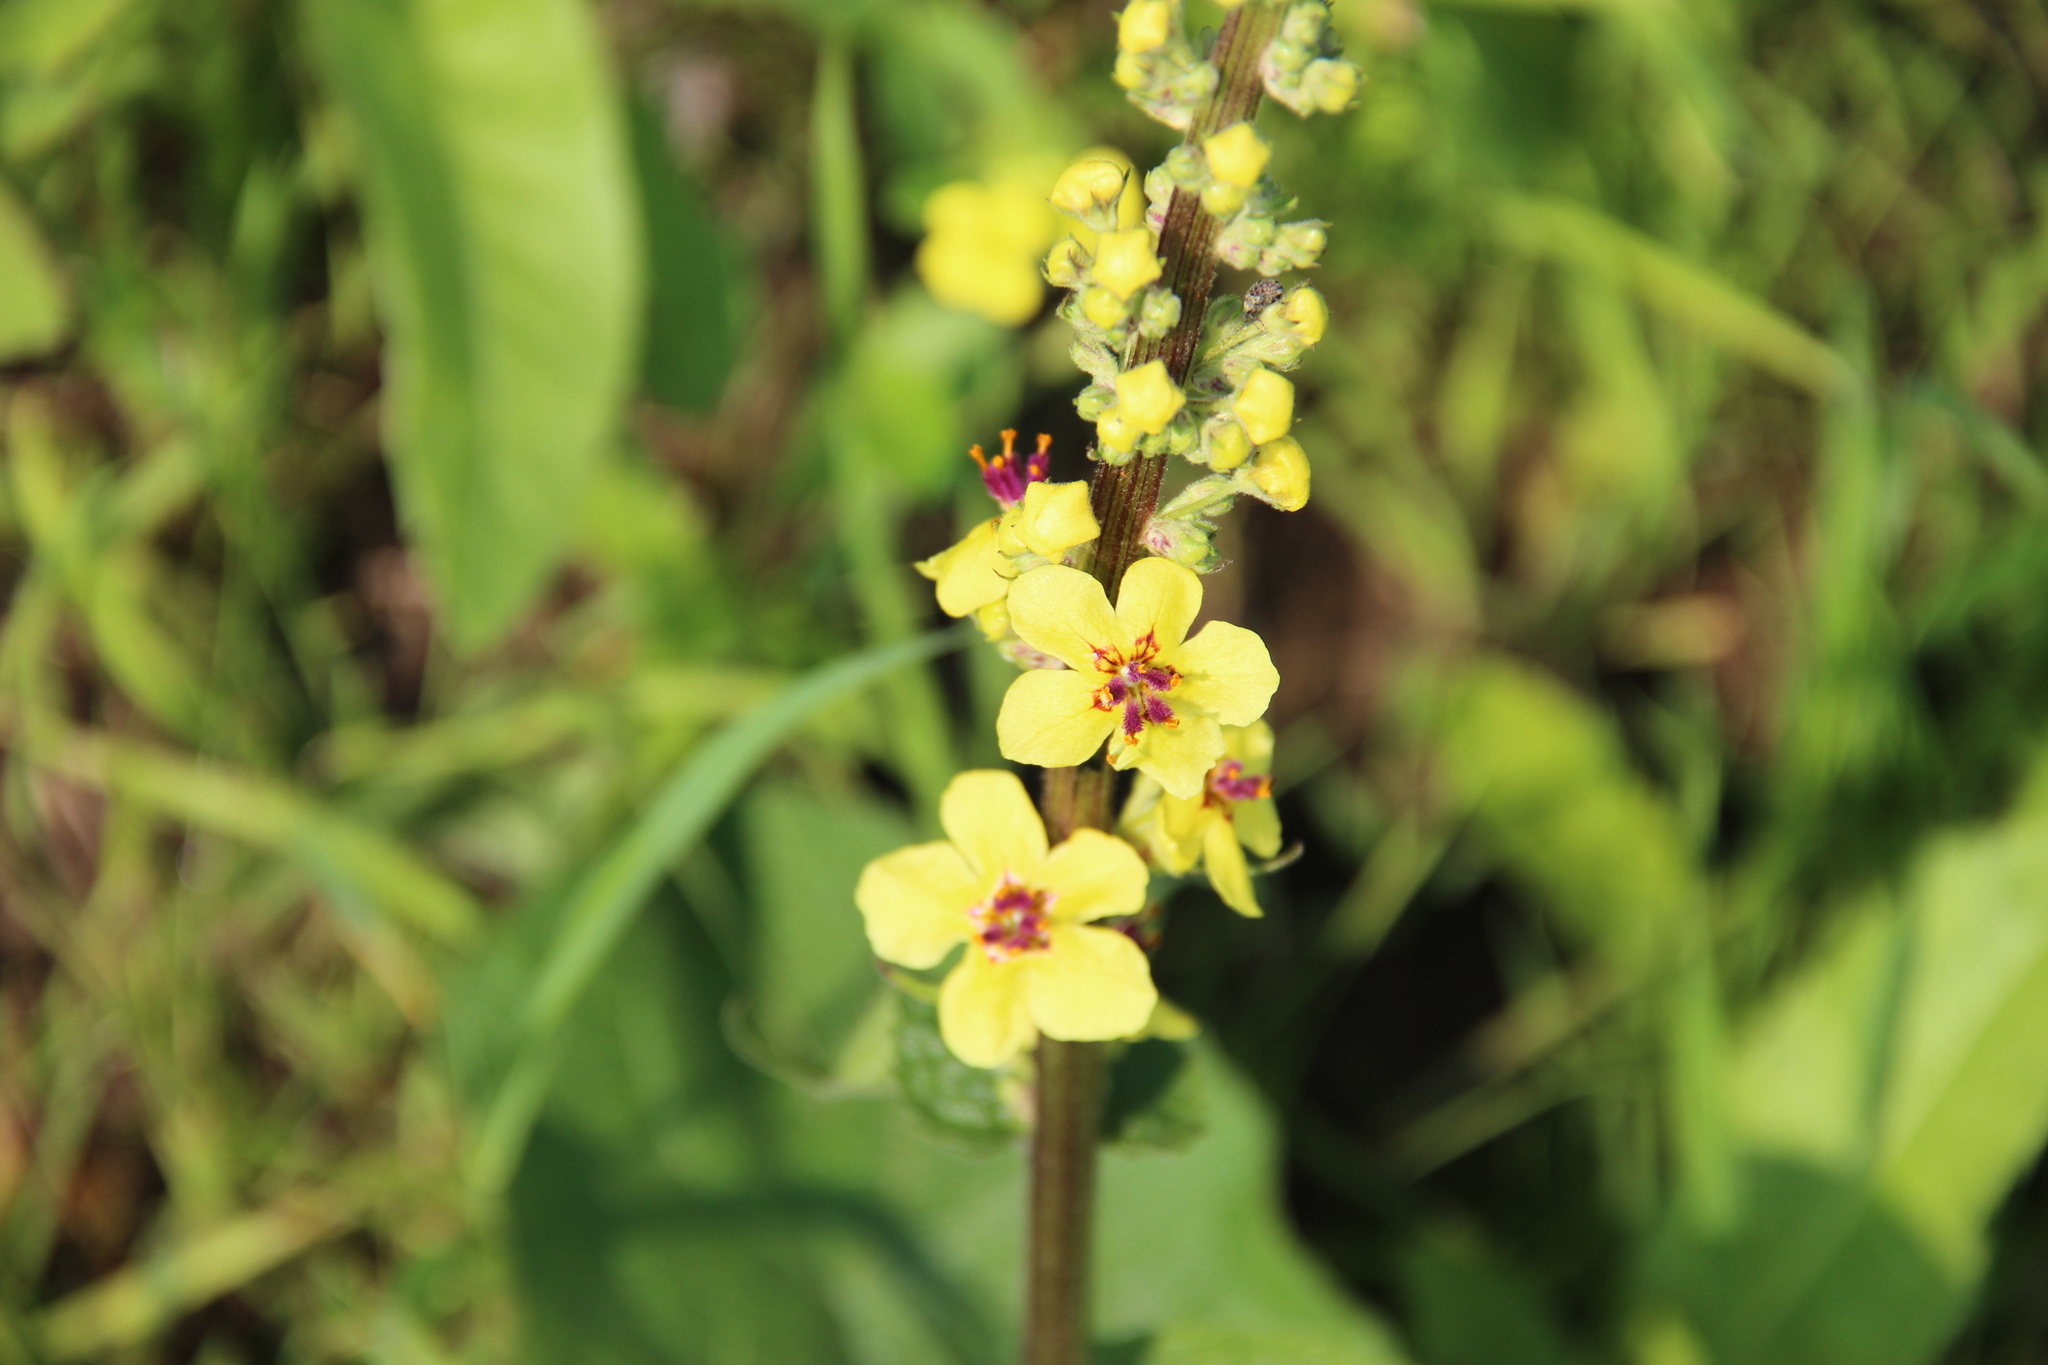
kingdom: Plantae
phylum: Tracheophyta
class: Magnoliopsida
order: Lamiales
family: Scrophulariaceae
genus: Verbascum
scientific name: Verbascum nigrum
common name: Dark mullein
